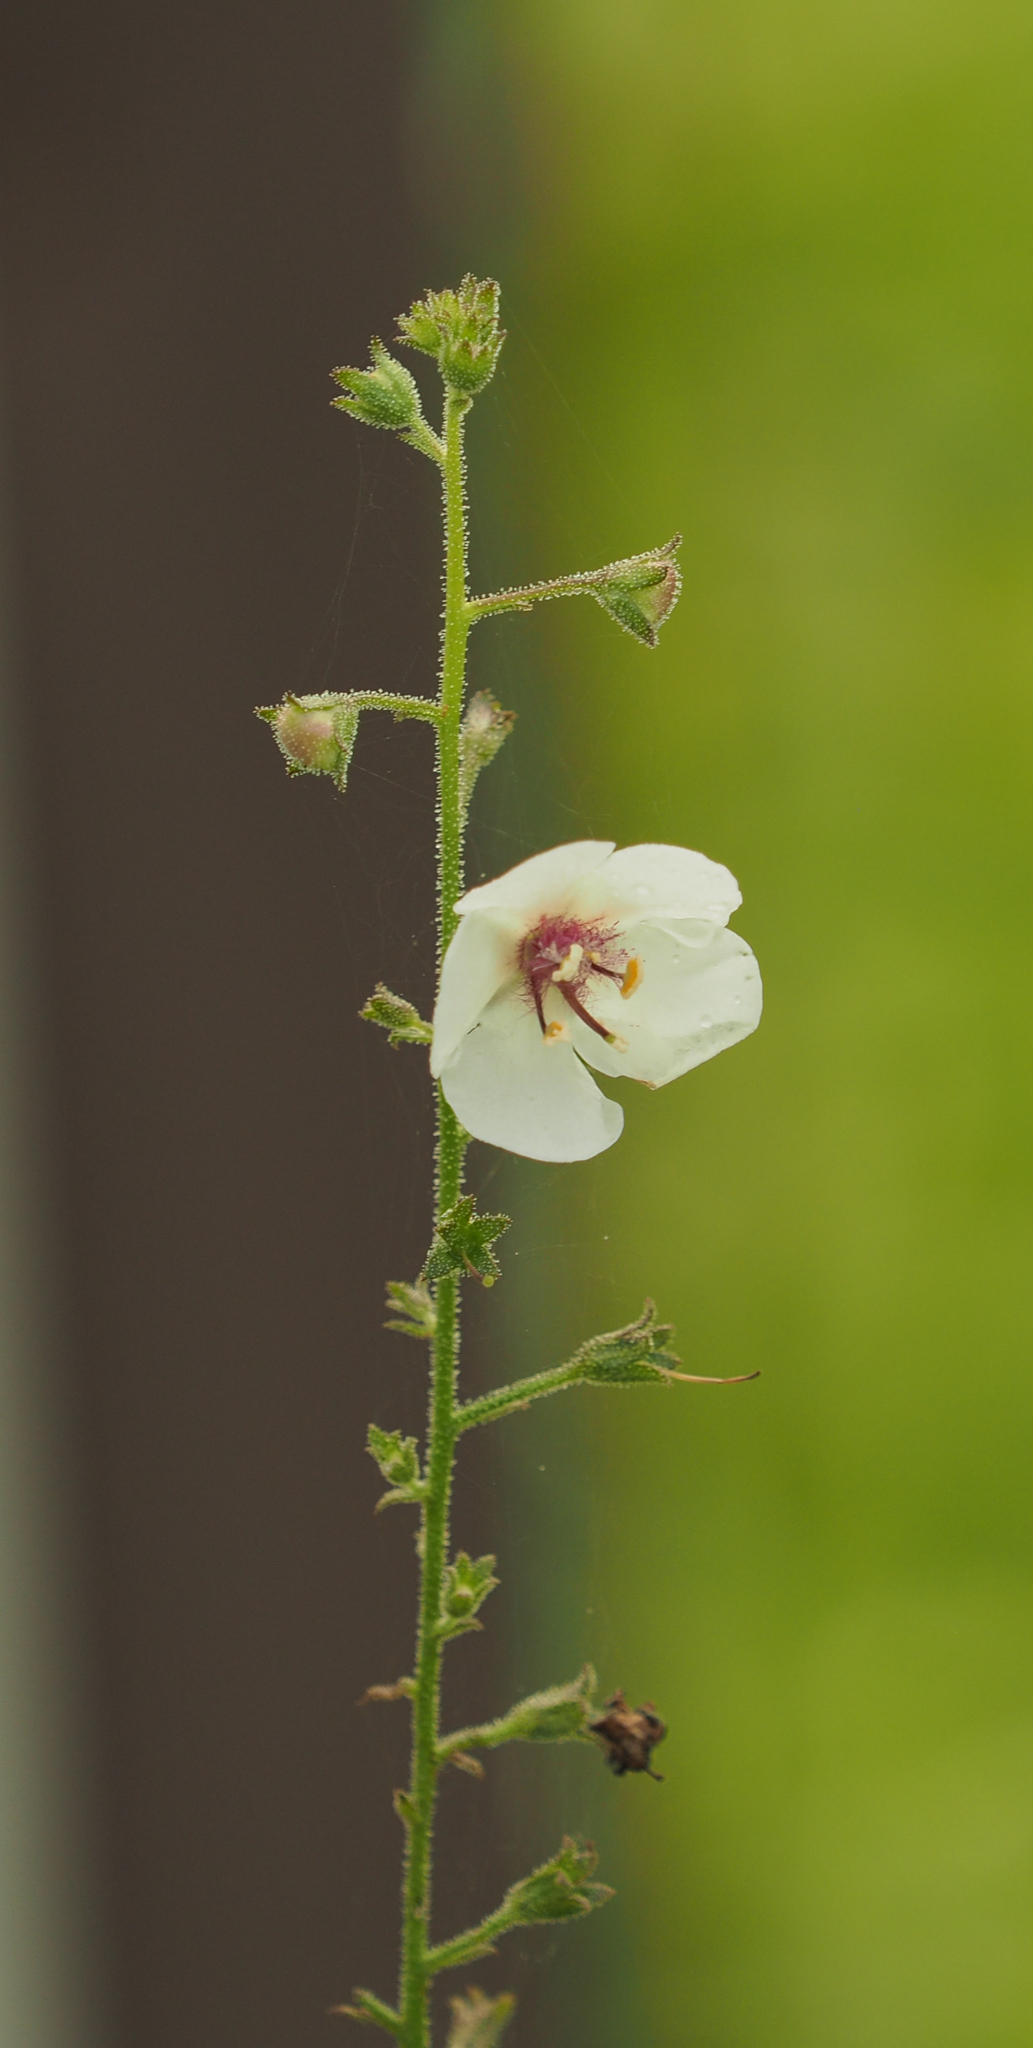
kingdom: Plantae
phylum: Tracheophyta
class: Magnoliopsida
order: Lamiales
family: Scrophulariaceae
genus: Verbascum
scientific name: Verbascum blattaria
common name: Moth mullein
